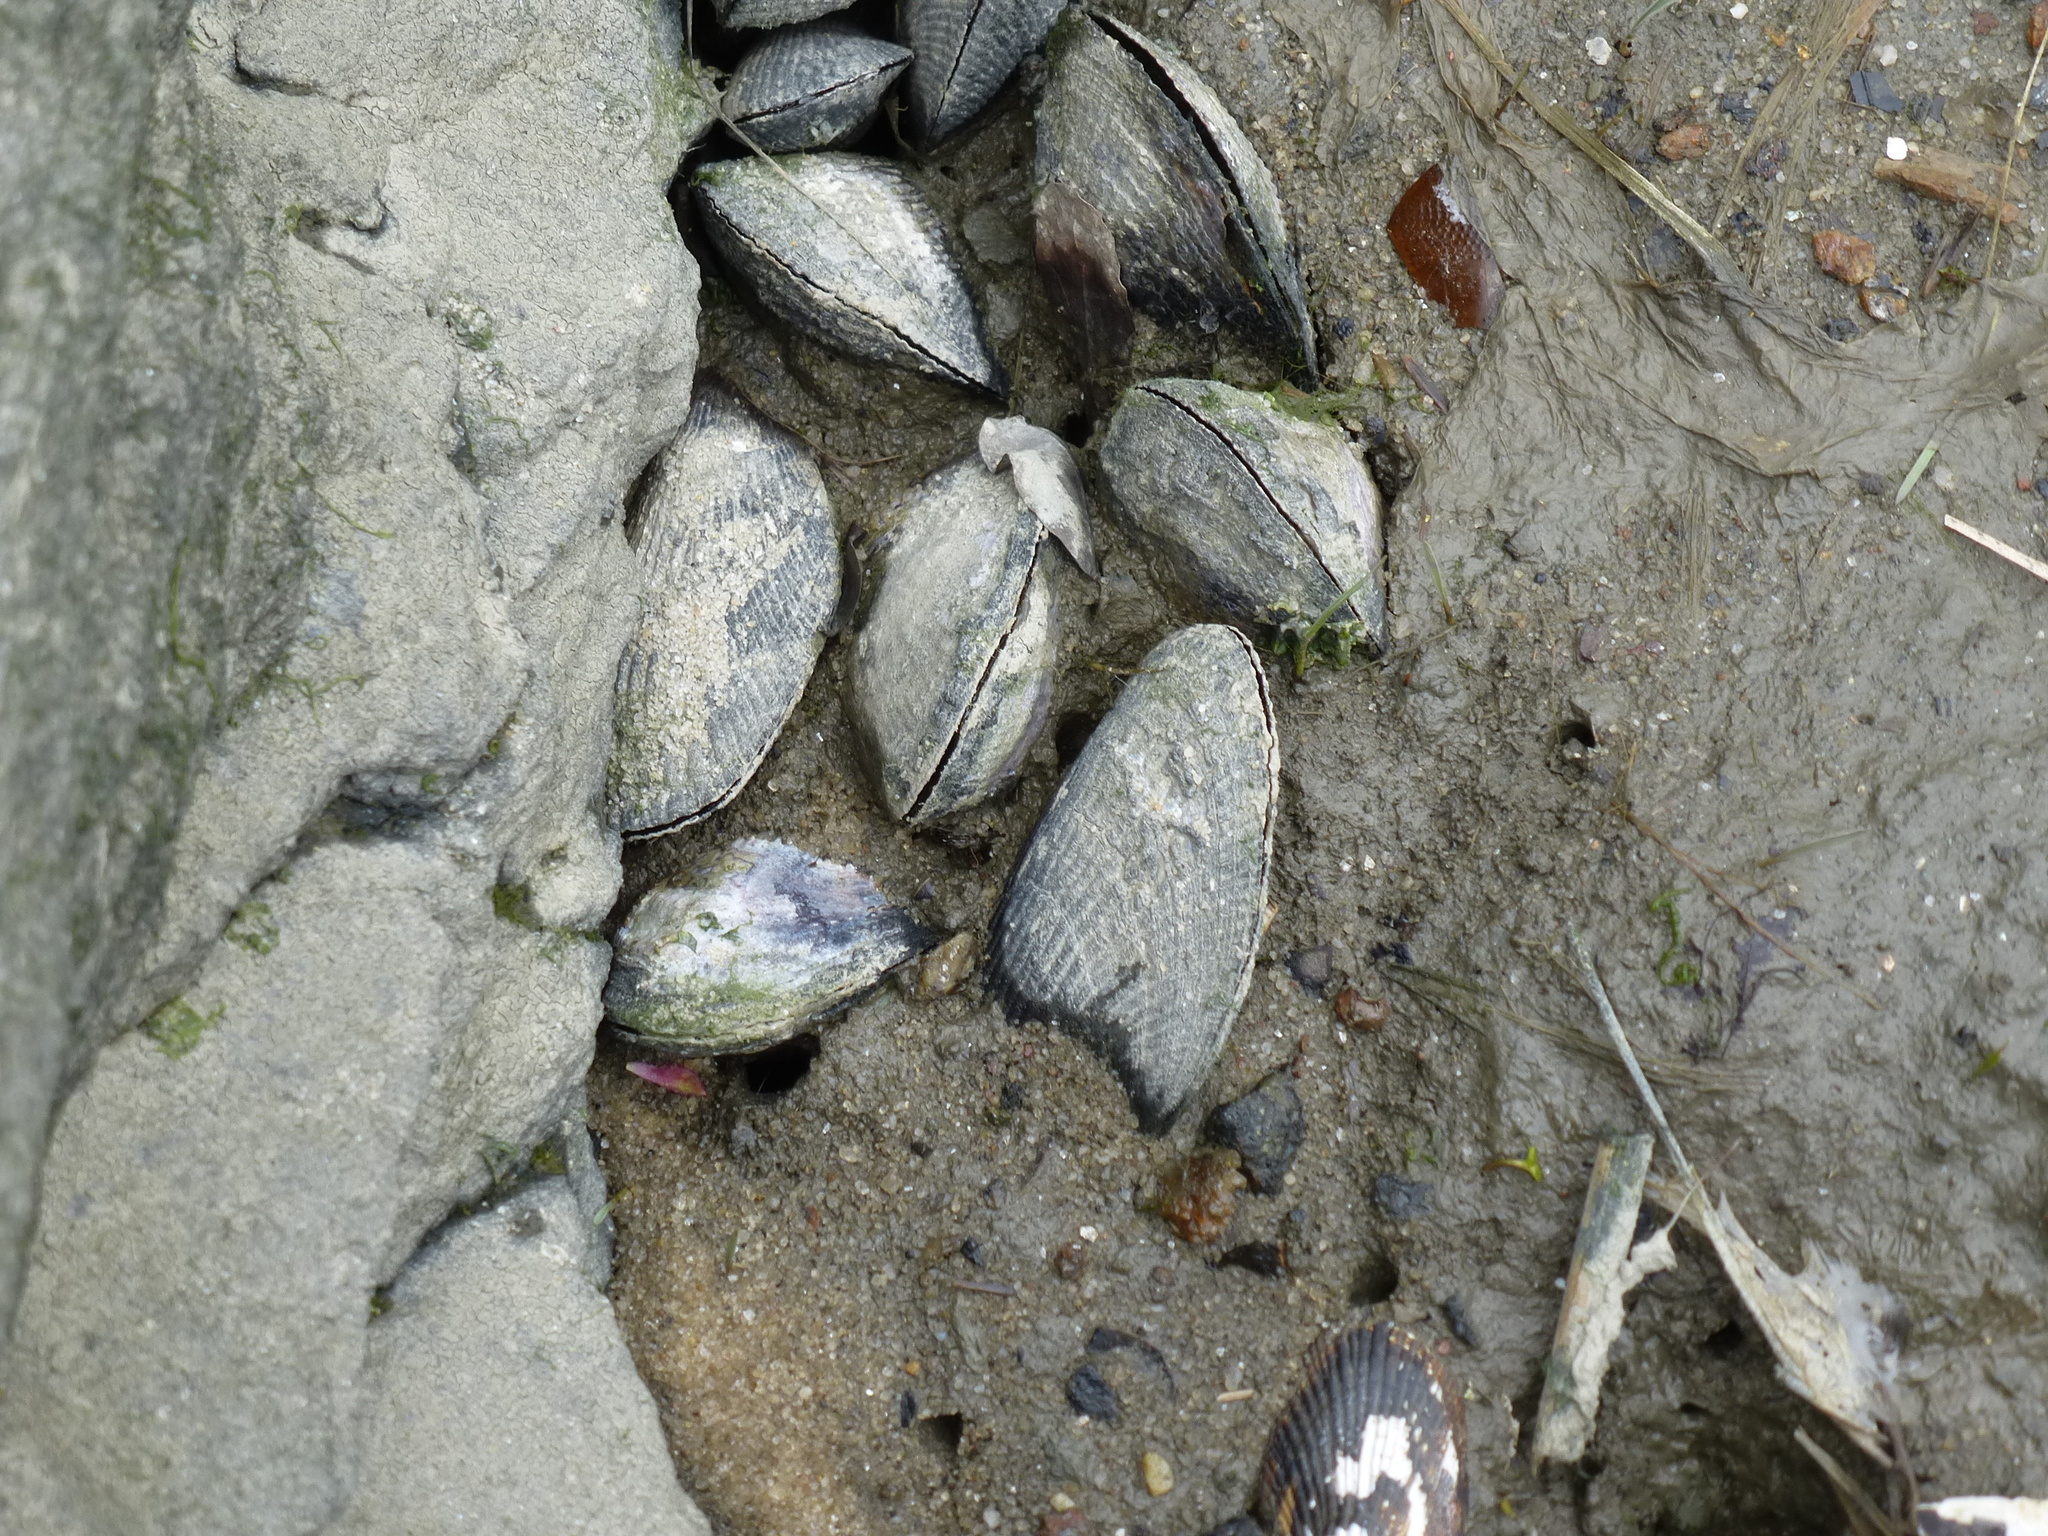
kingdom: Animalia
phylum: Mollusca
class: Bivalvia
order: Mytilida
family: Mytilidae
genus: Geukensia
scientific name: Geukensia demissa
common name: Ribbed mussel
